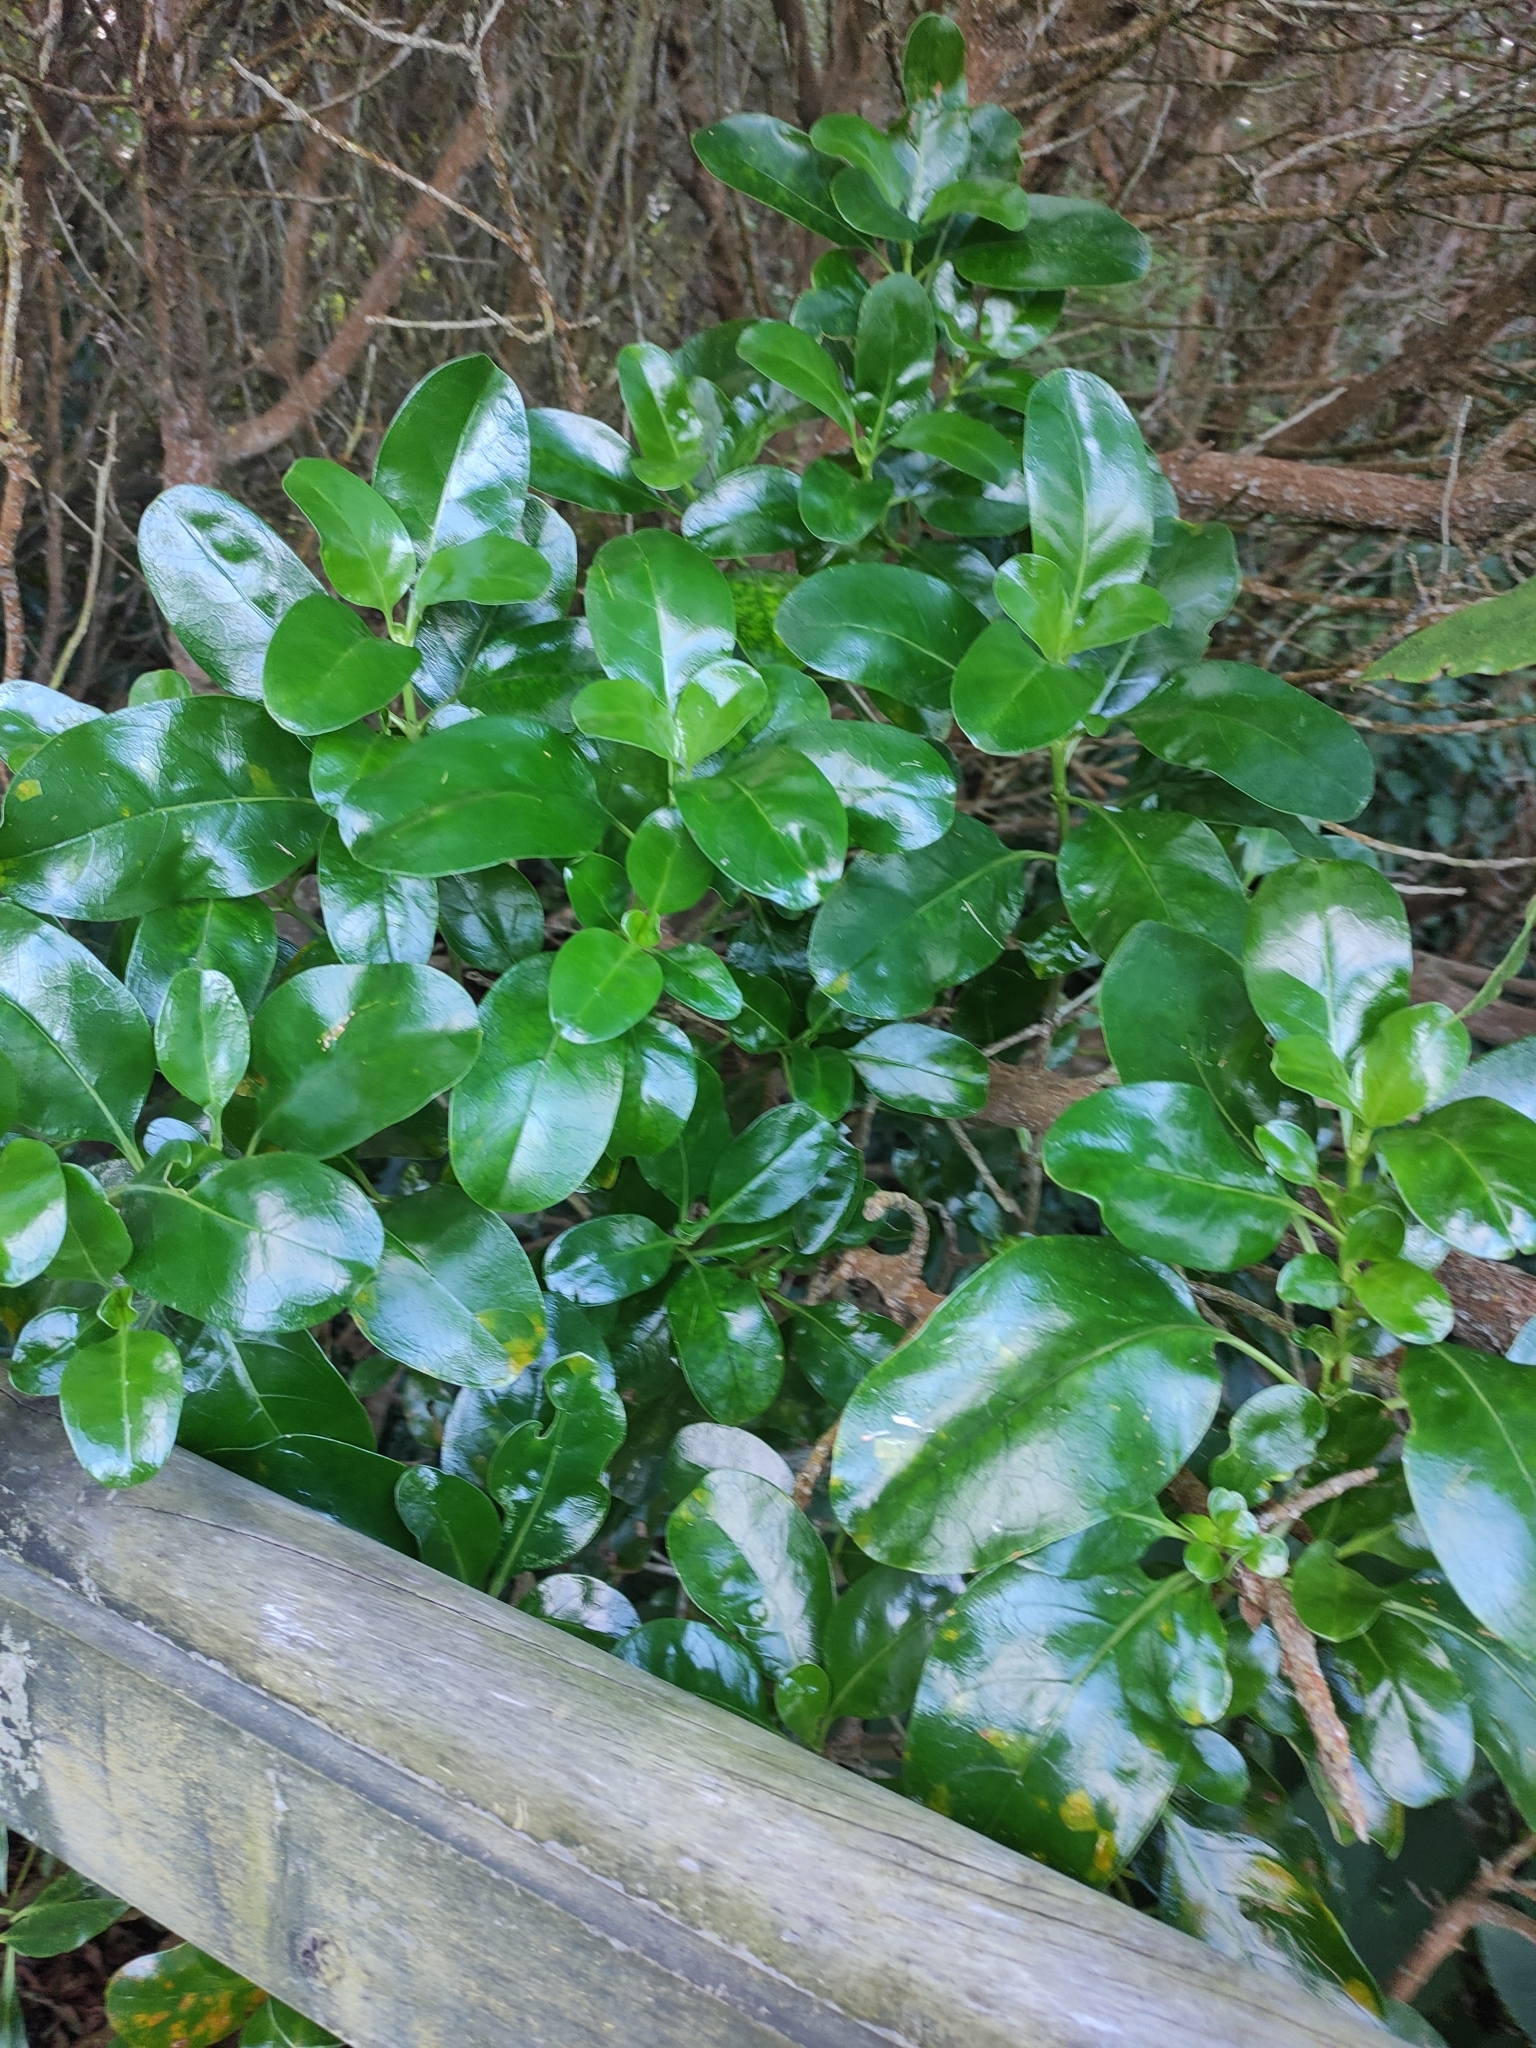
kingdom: Plantae
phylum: Tracheophyta
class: Magnoliopsida
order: Gentianales
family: Rubiaceae
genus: Coprosma
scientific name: Coprosma repens
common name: Tree bedstraw
